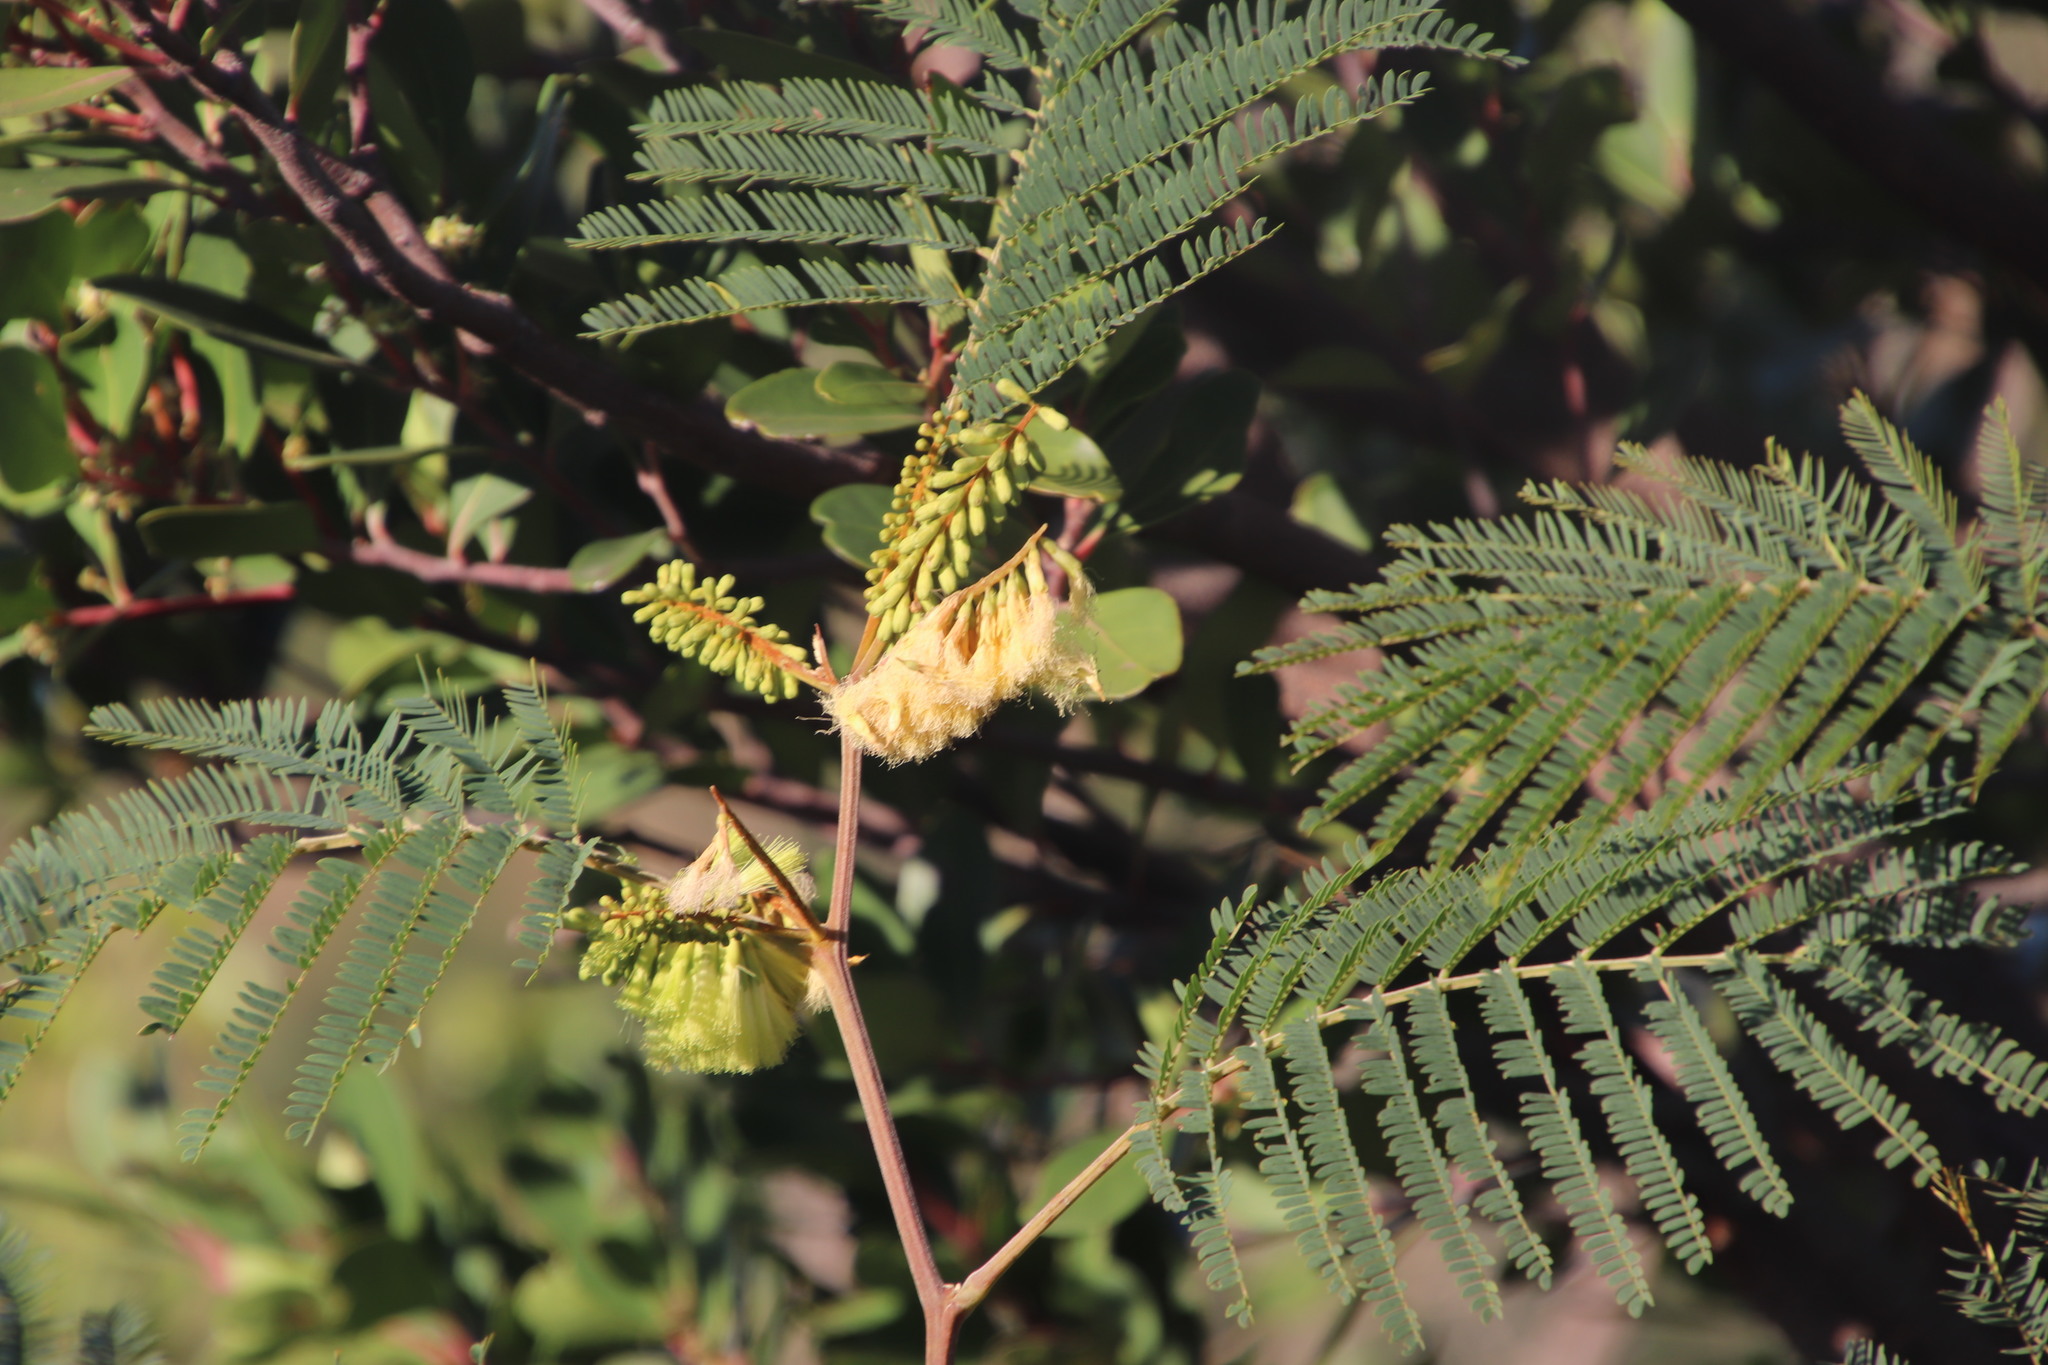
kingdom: Plantae
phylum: Tracheophyta
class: Magnoliopsida
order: Fabales
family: Fabaceae
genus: Paraserianthes
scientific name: Paraserianthes lophantha
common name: Plume albizia
